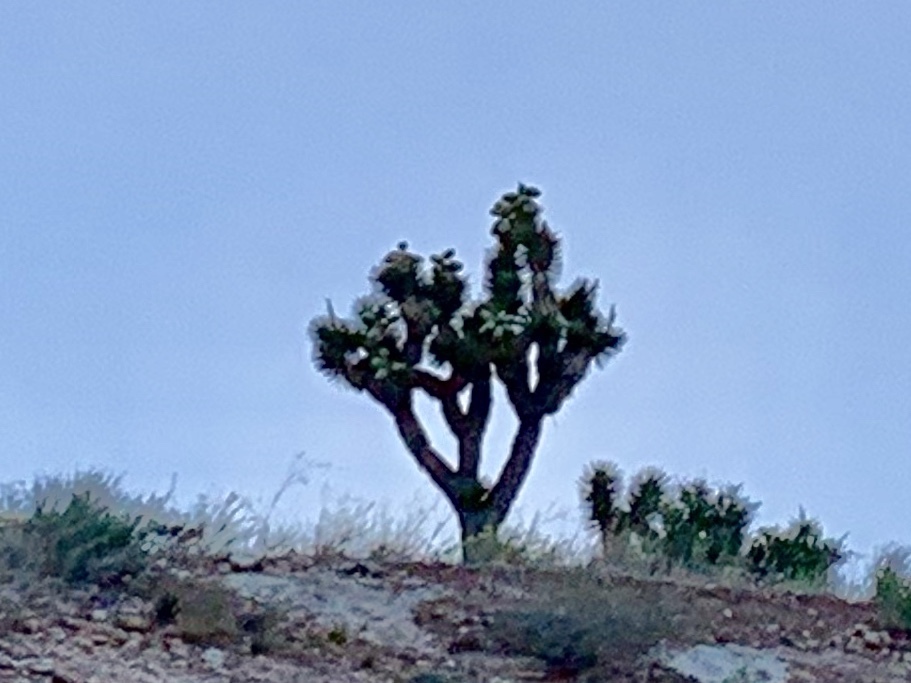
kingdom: Plantae
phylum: Tracheophyta
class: Liliopsida
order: Asparagales
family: Asparagaceae
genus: Yucca
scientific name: Yucca brevifolia
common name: Joshua tree
